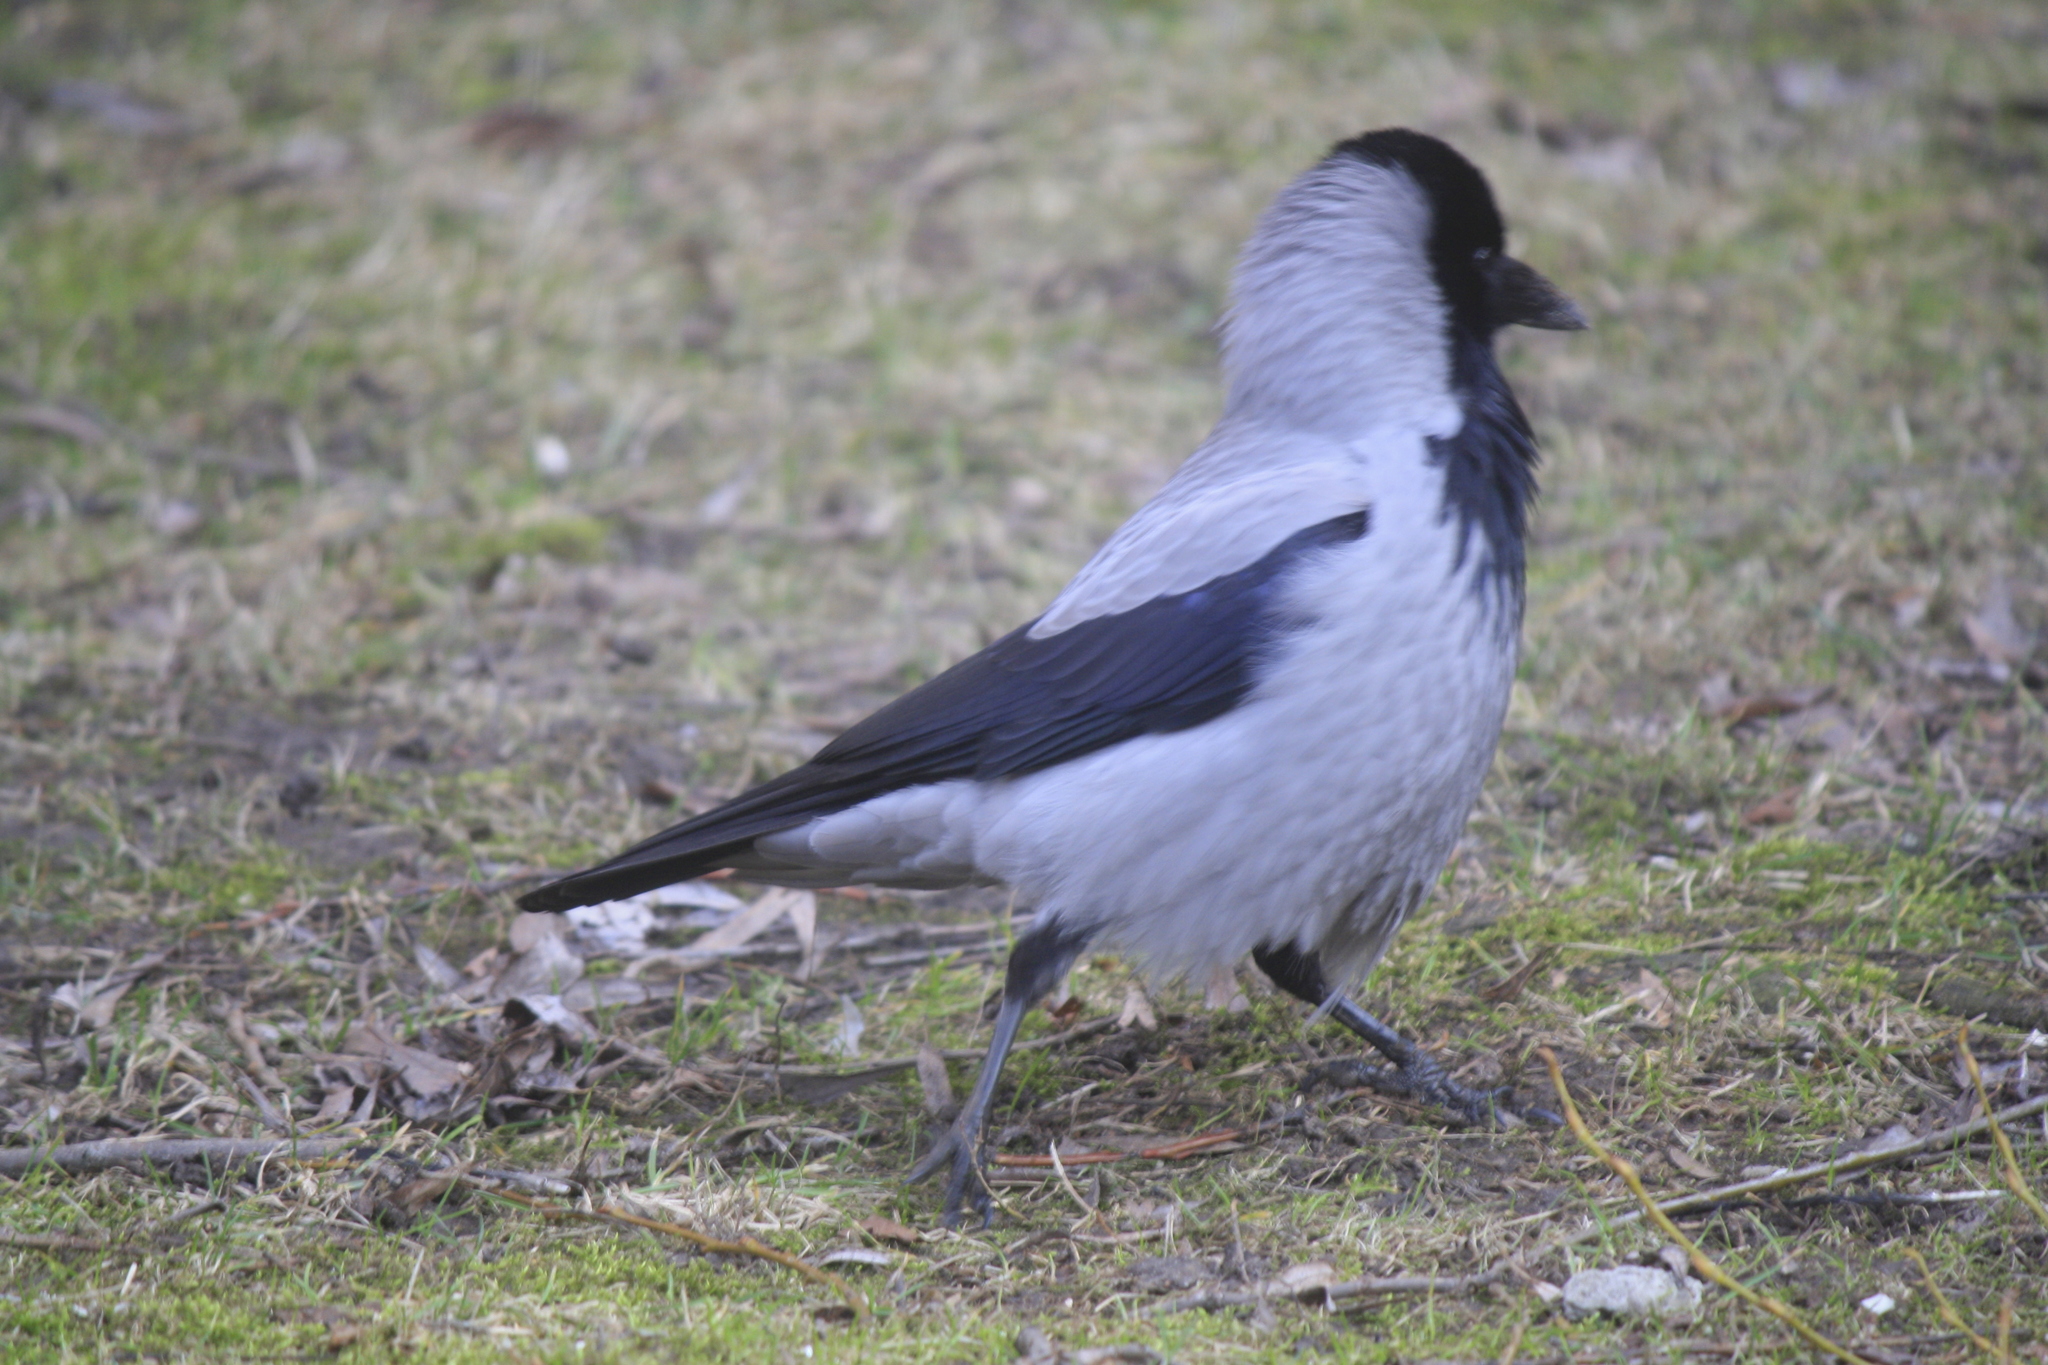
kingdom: Animalia
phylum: Chordata
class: Aves
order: Passeriformes
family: Corvidae
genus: Corvus
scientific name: Corvus cornix
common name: Hooded crow
